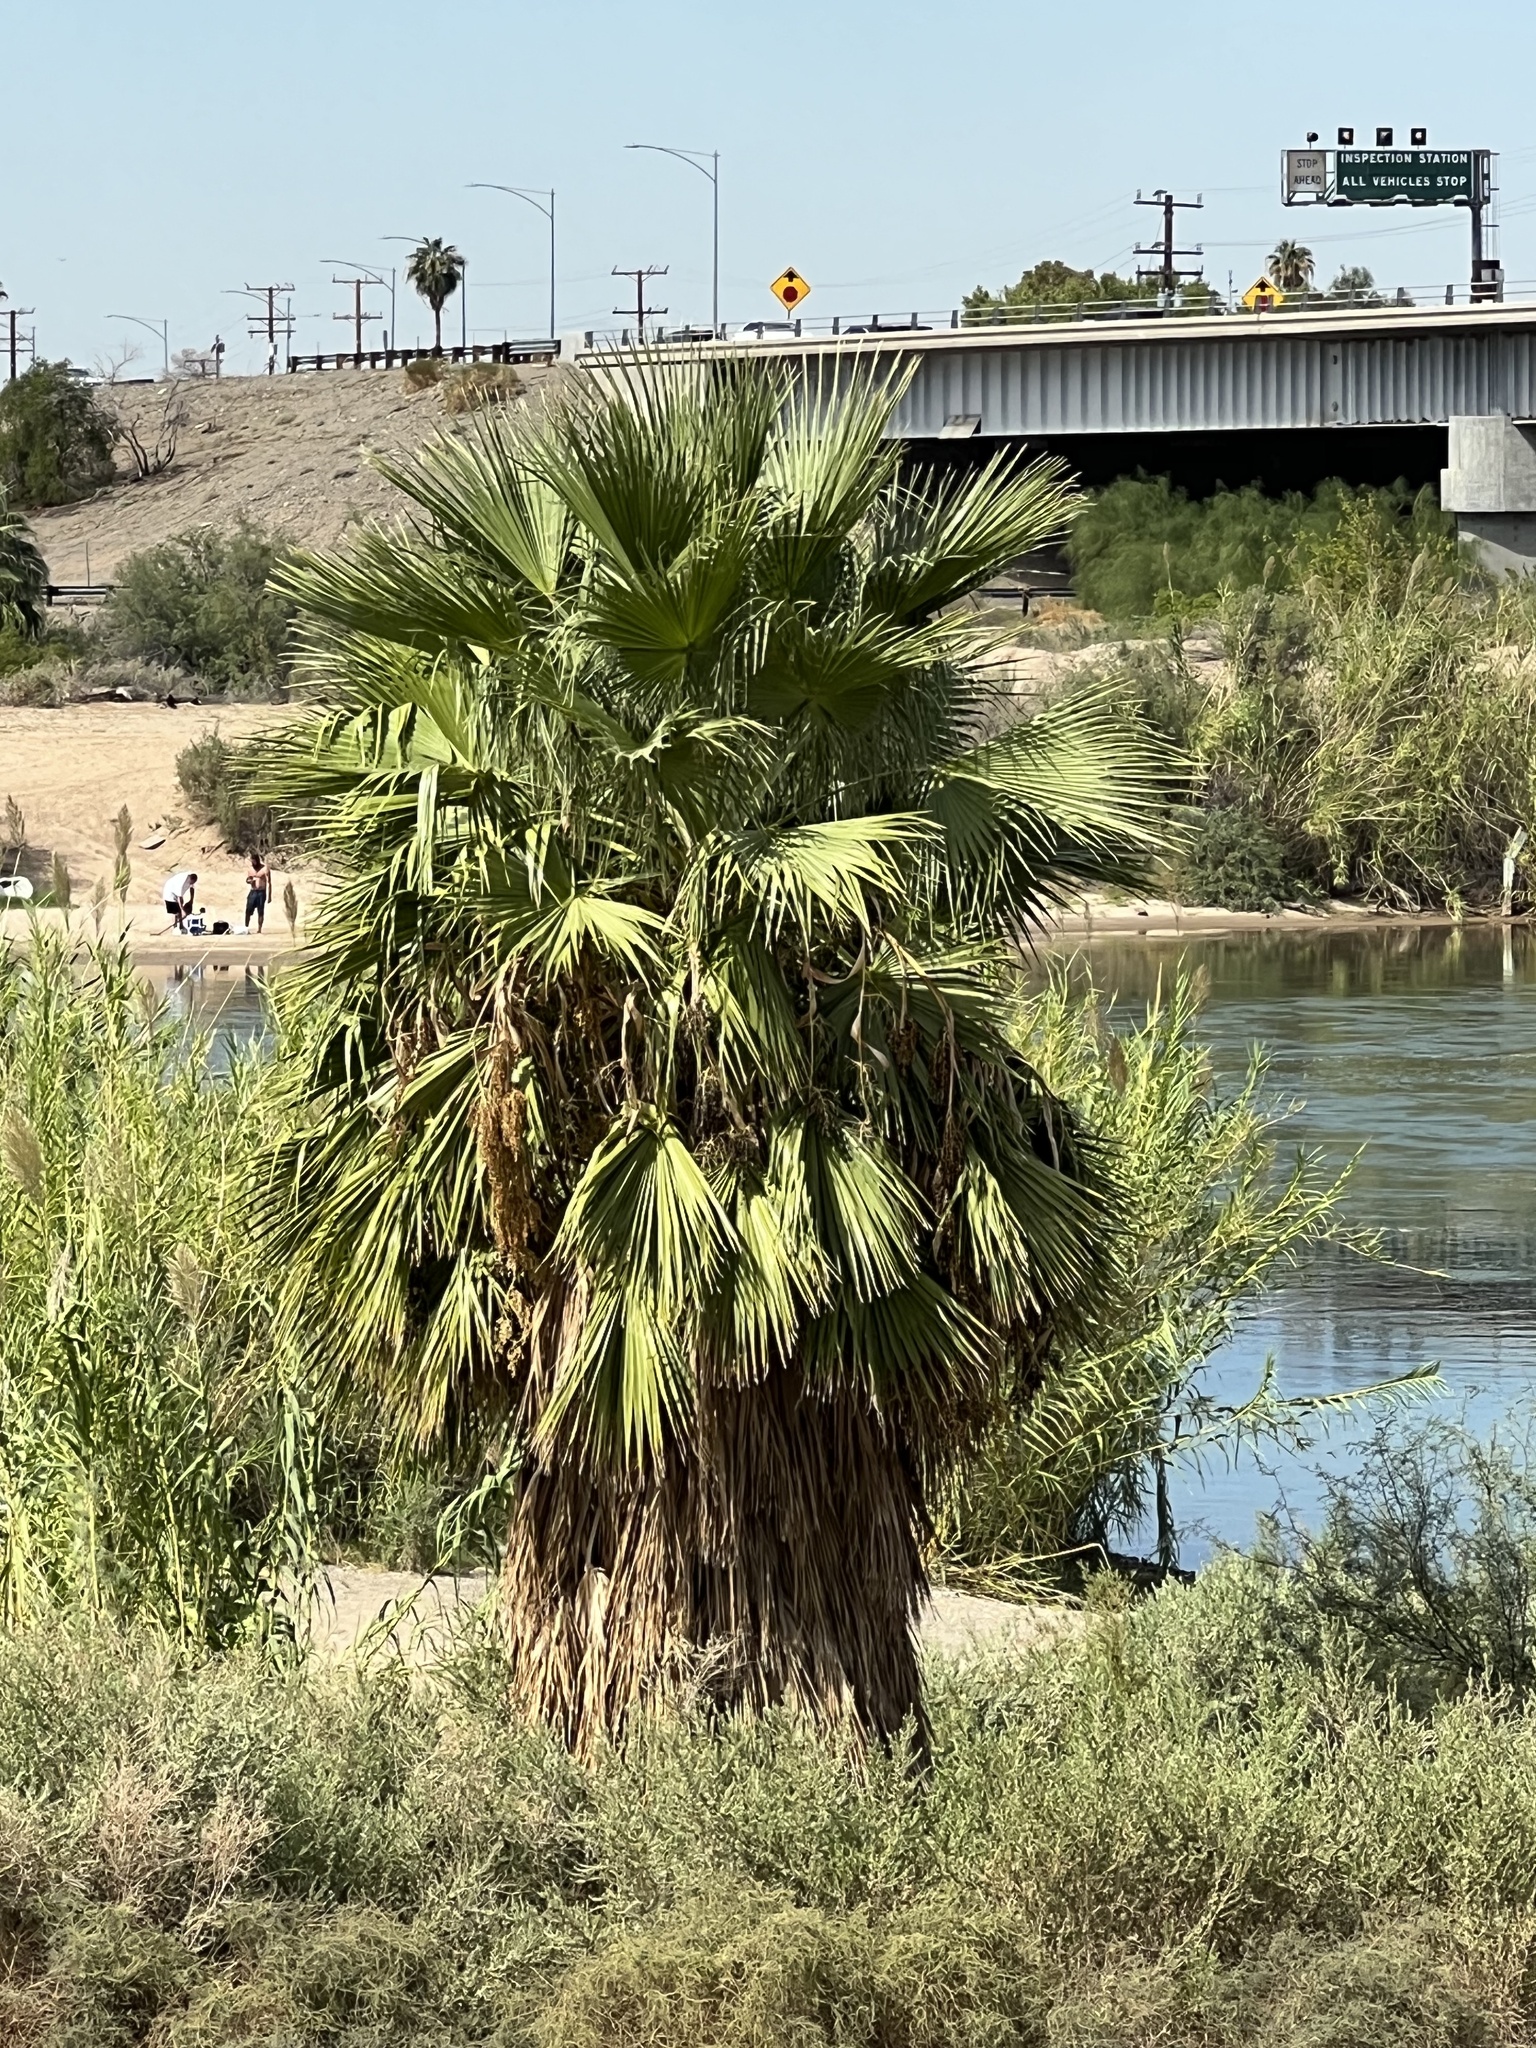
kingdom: Plantae
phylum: Tracheophyta
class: Liliopsida
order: Arecales
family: Arecaceae
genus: Washingtonia
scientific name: Washingtonia robusta
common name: Mexican fan palm
